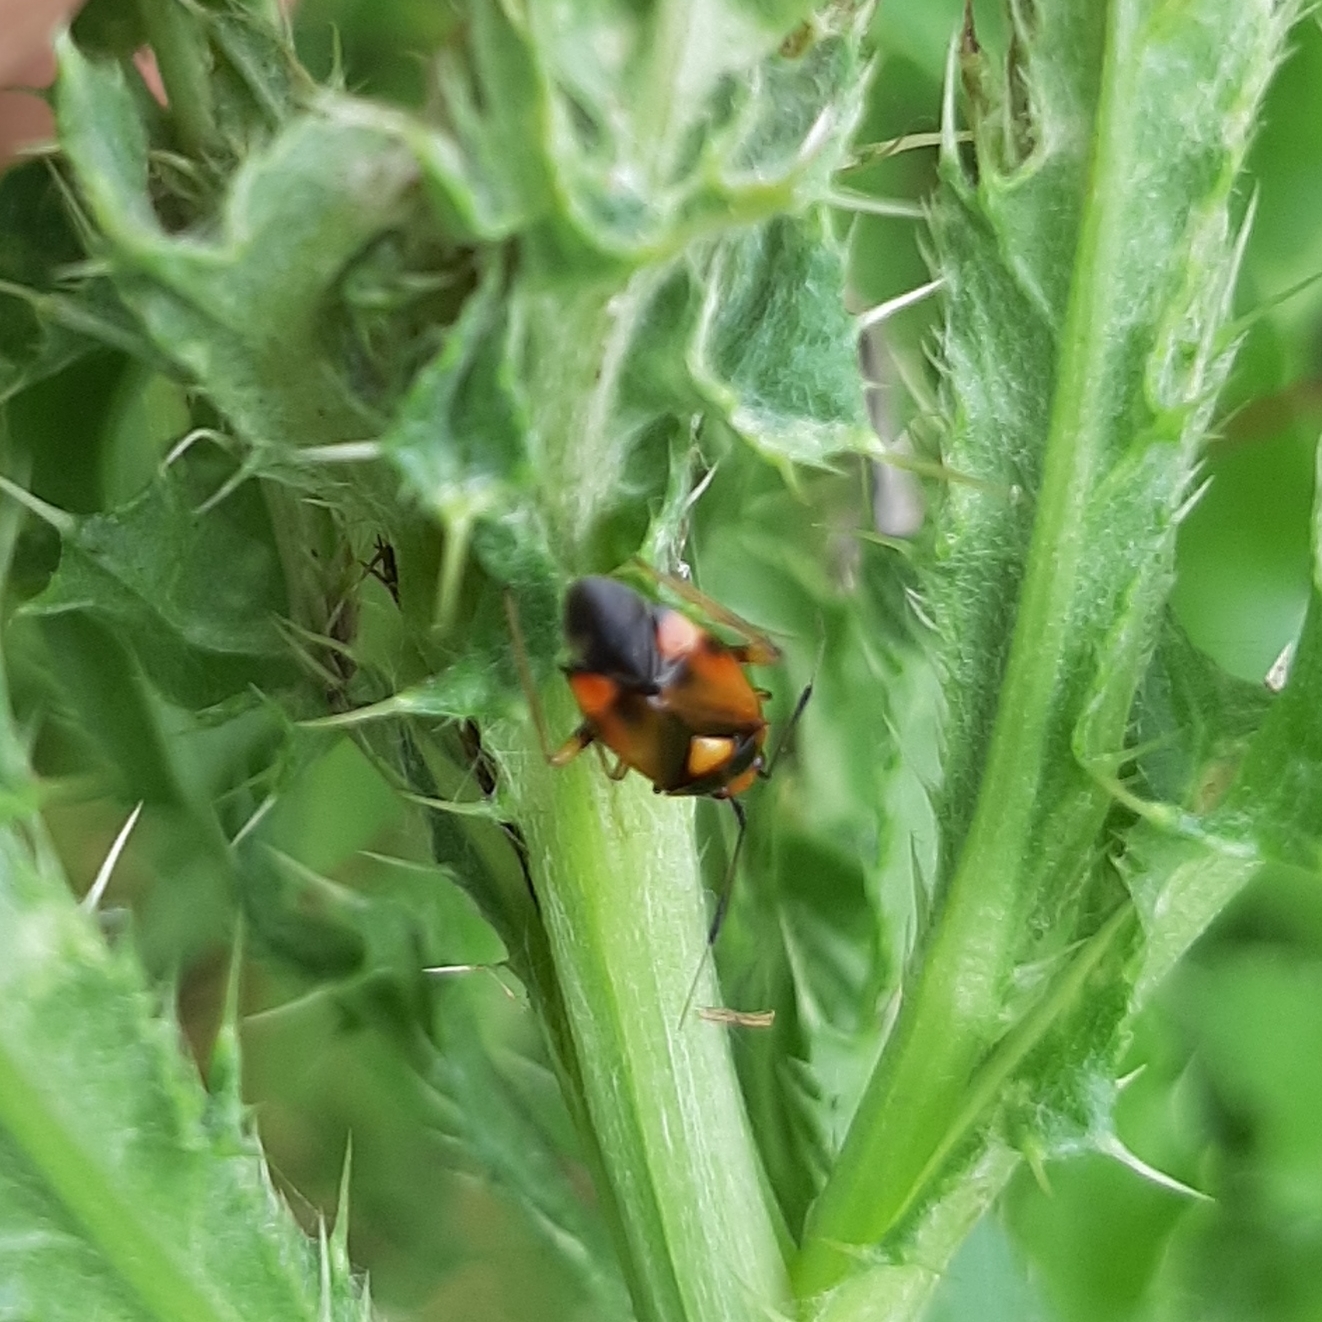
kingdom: Animalia
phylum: Arthropoda
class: Insecta
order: Hemiptera
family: Miridae
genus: Deraeocoris
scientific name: Deraeocoris ruber
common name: Plant bug
